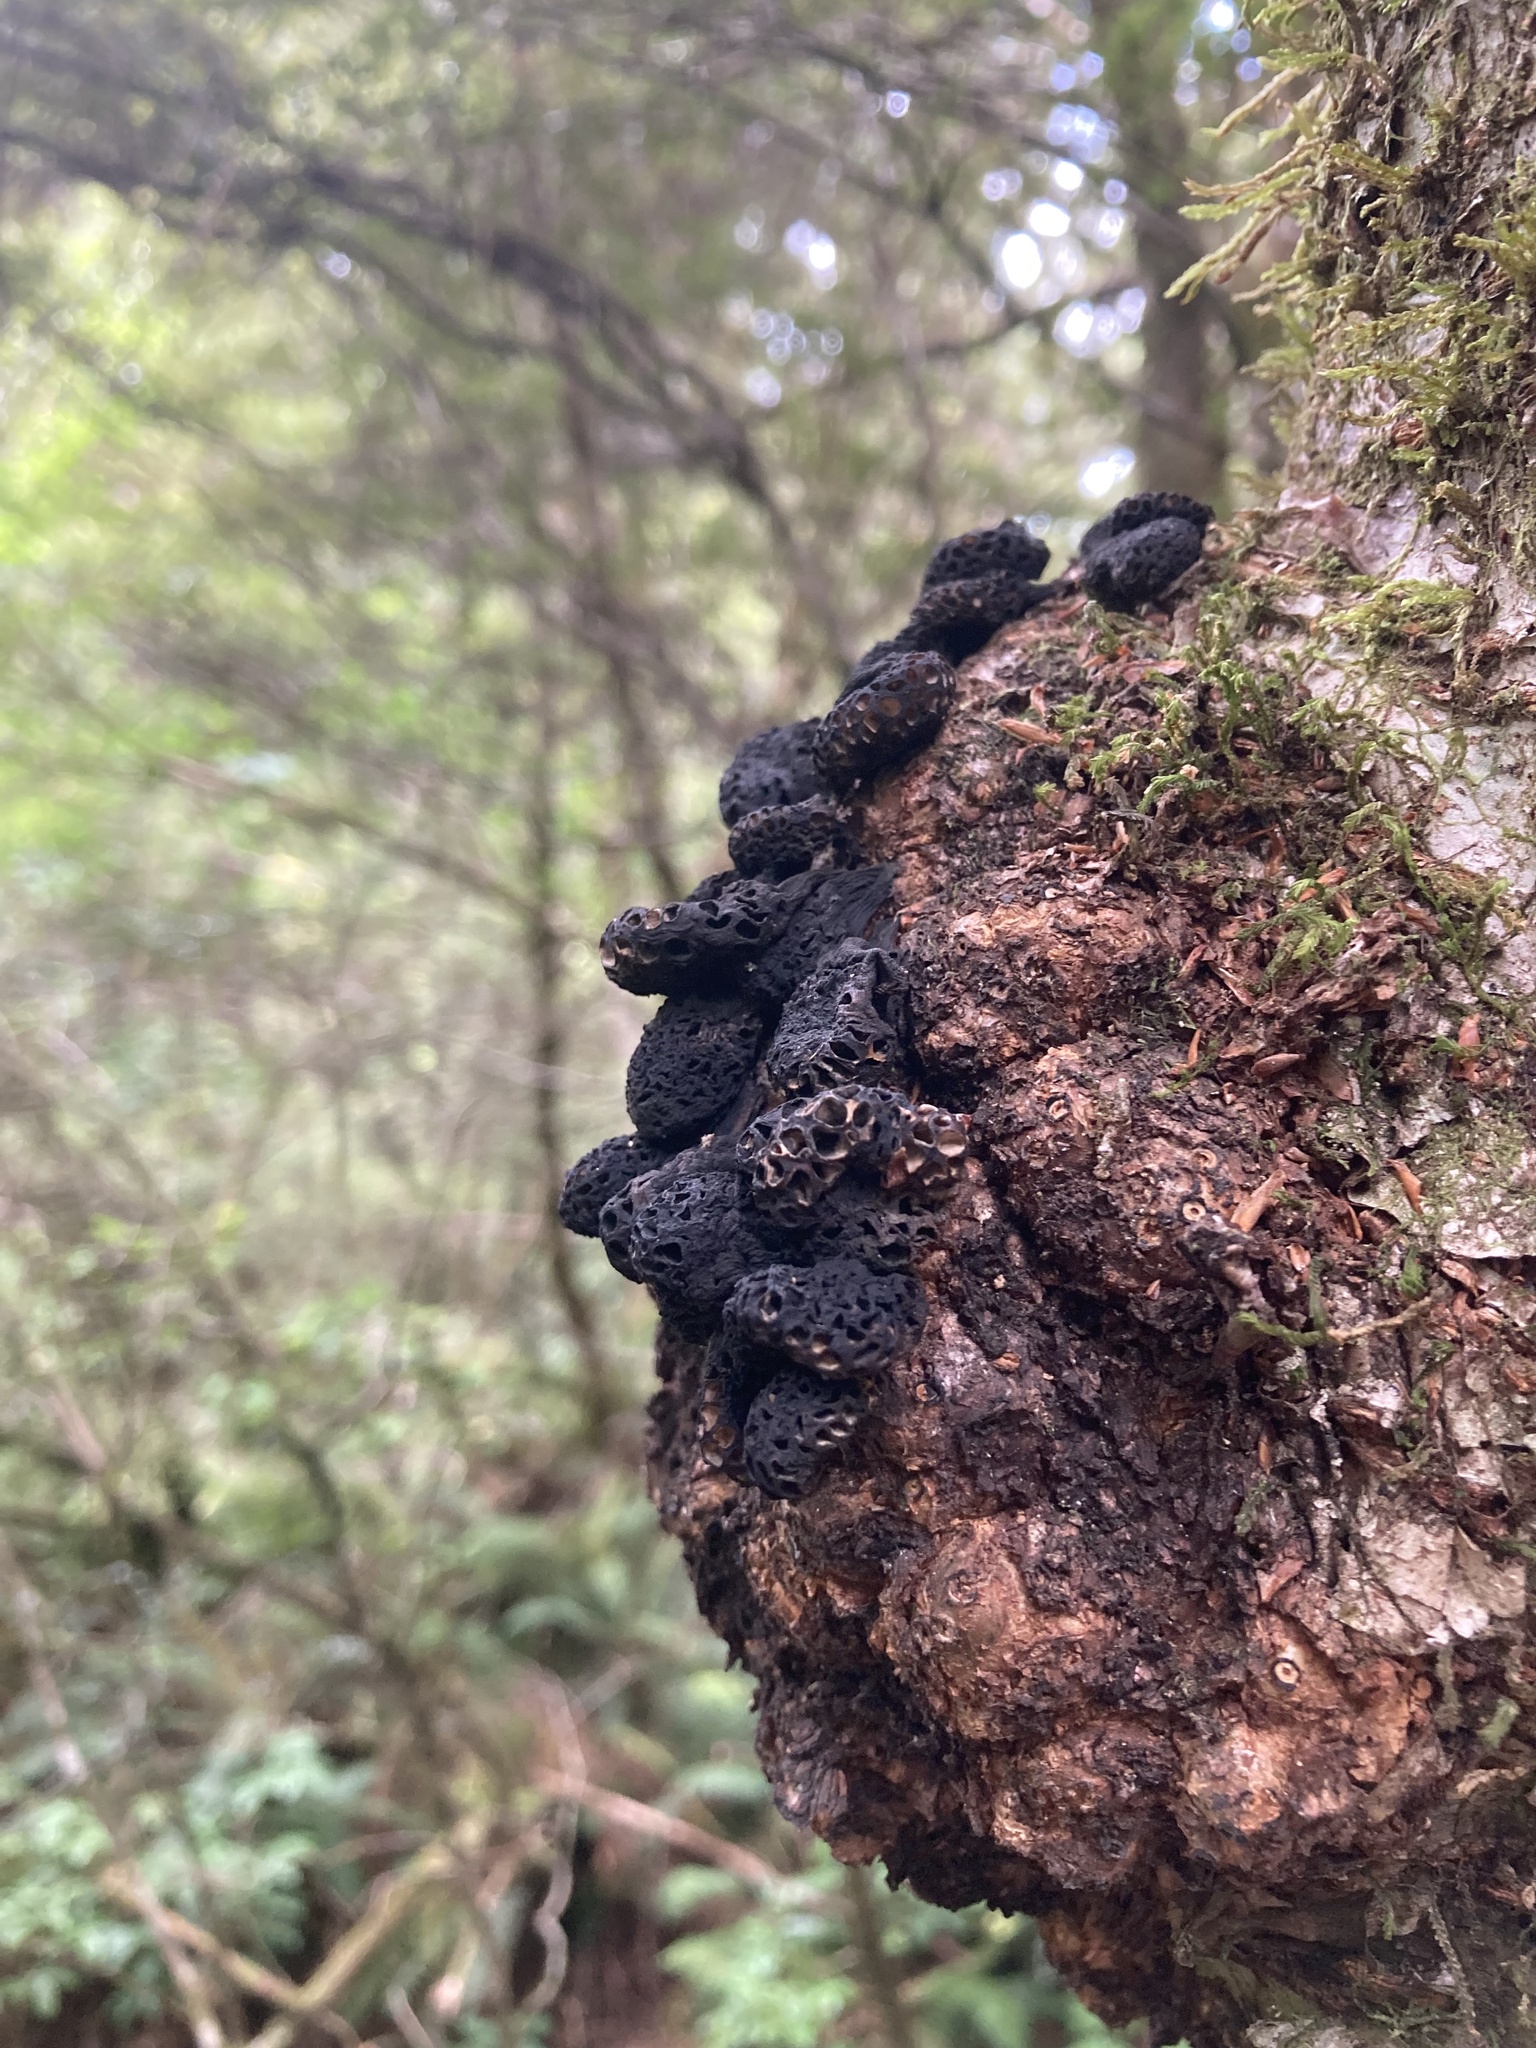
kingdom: Fungi
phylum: Ascomycota
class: Leotiomycetes
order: Cyttariales
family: Cyttariaceae
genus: Cyttaria
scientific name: Cyttaria nigra
